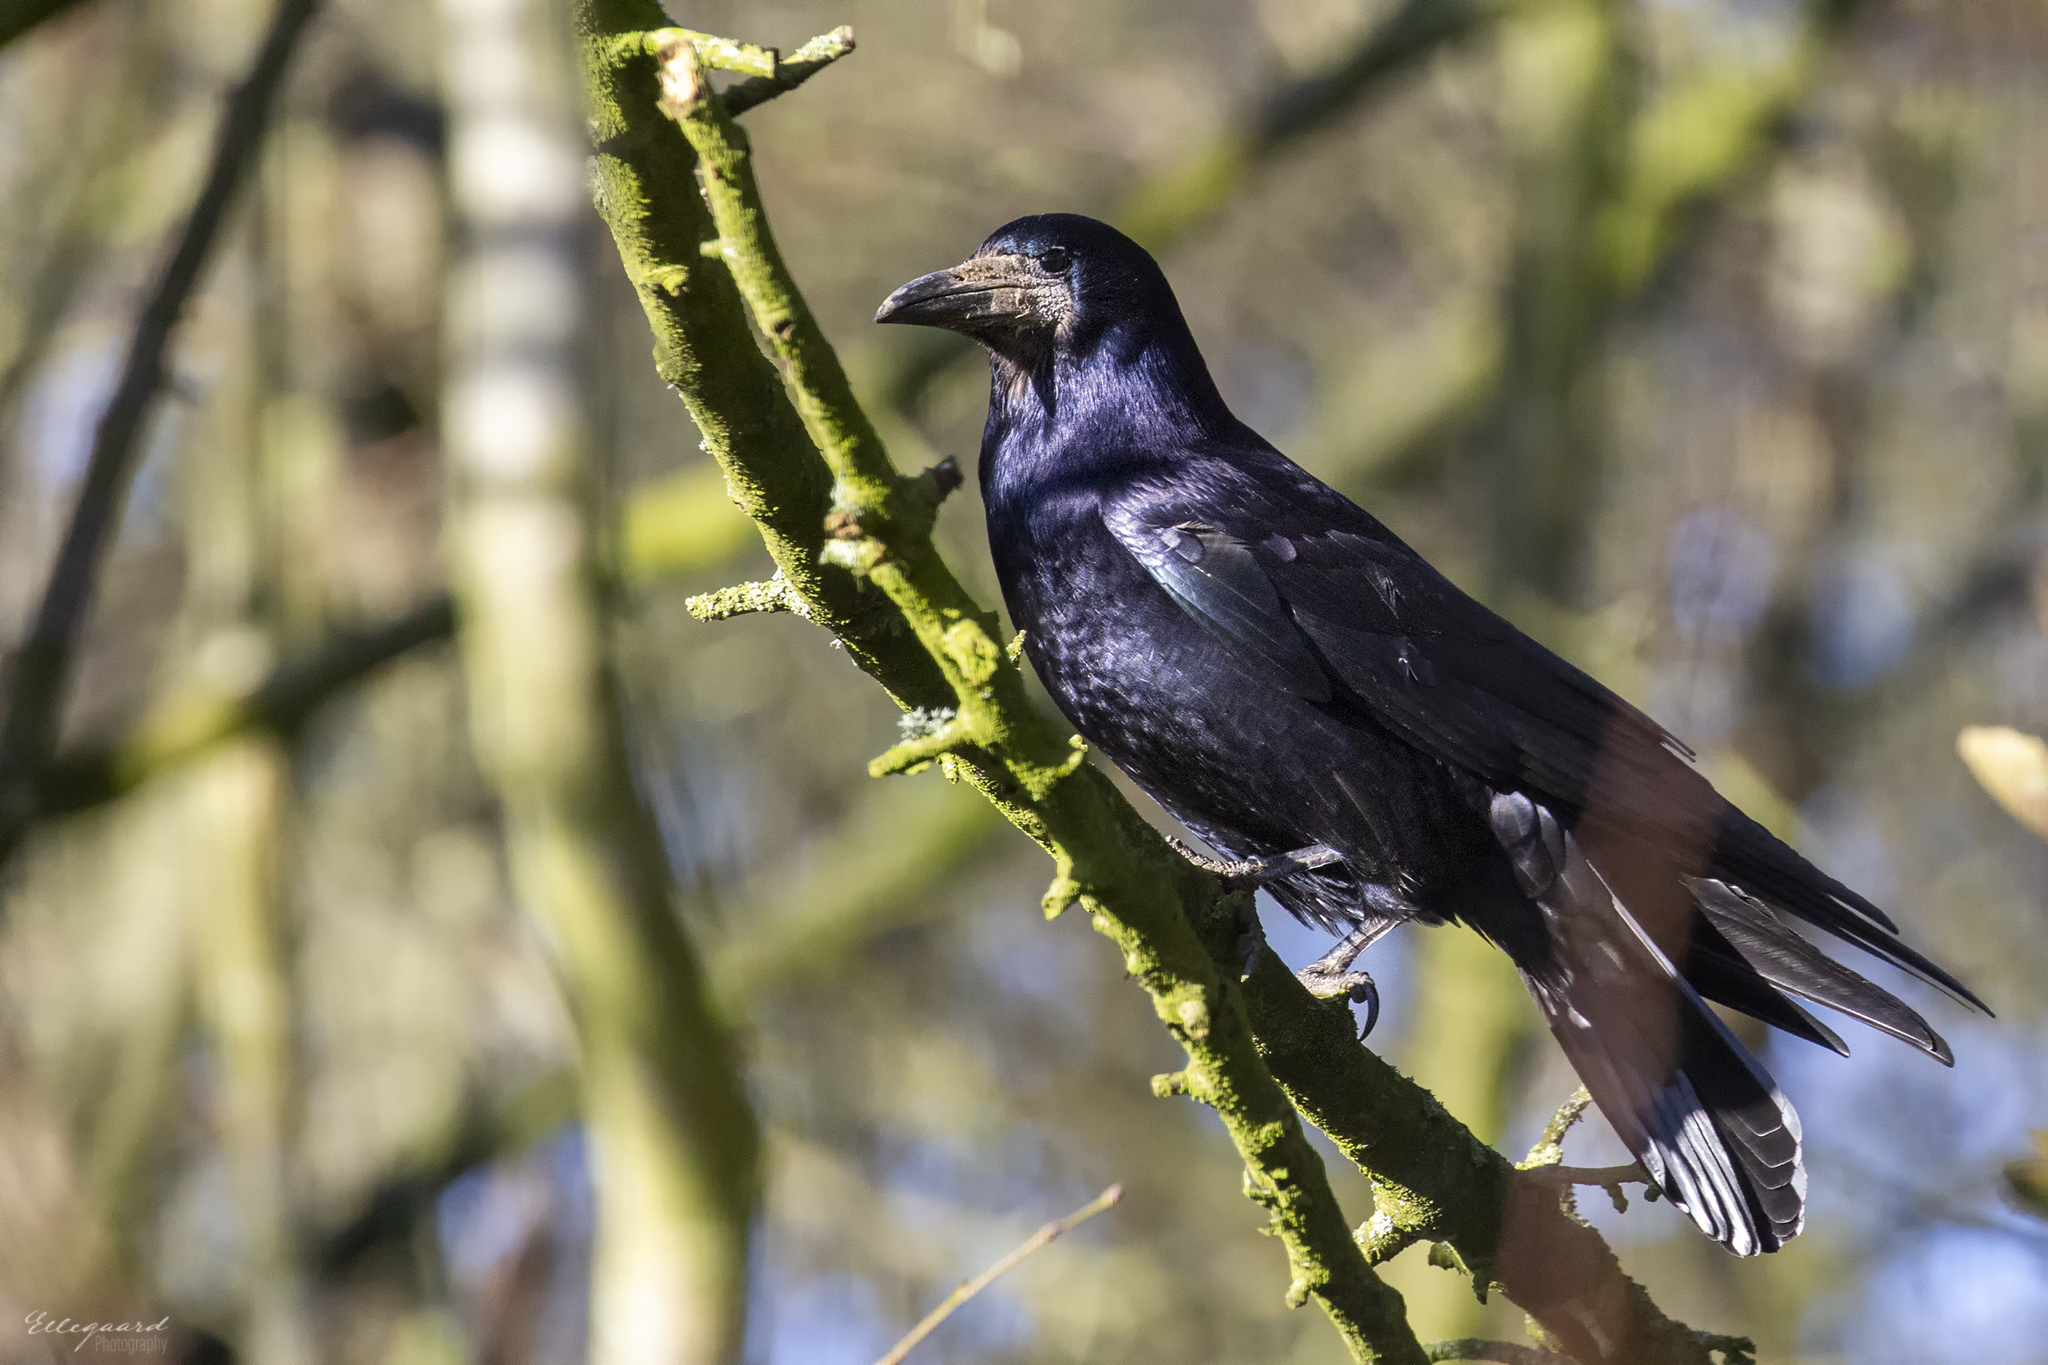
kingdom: Animalia
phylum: Chordata
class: Aves
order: Passeriformes
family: Corvidae
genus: Corvus
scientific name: Corvus frugilegus
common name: Rook
